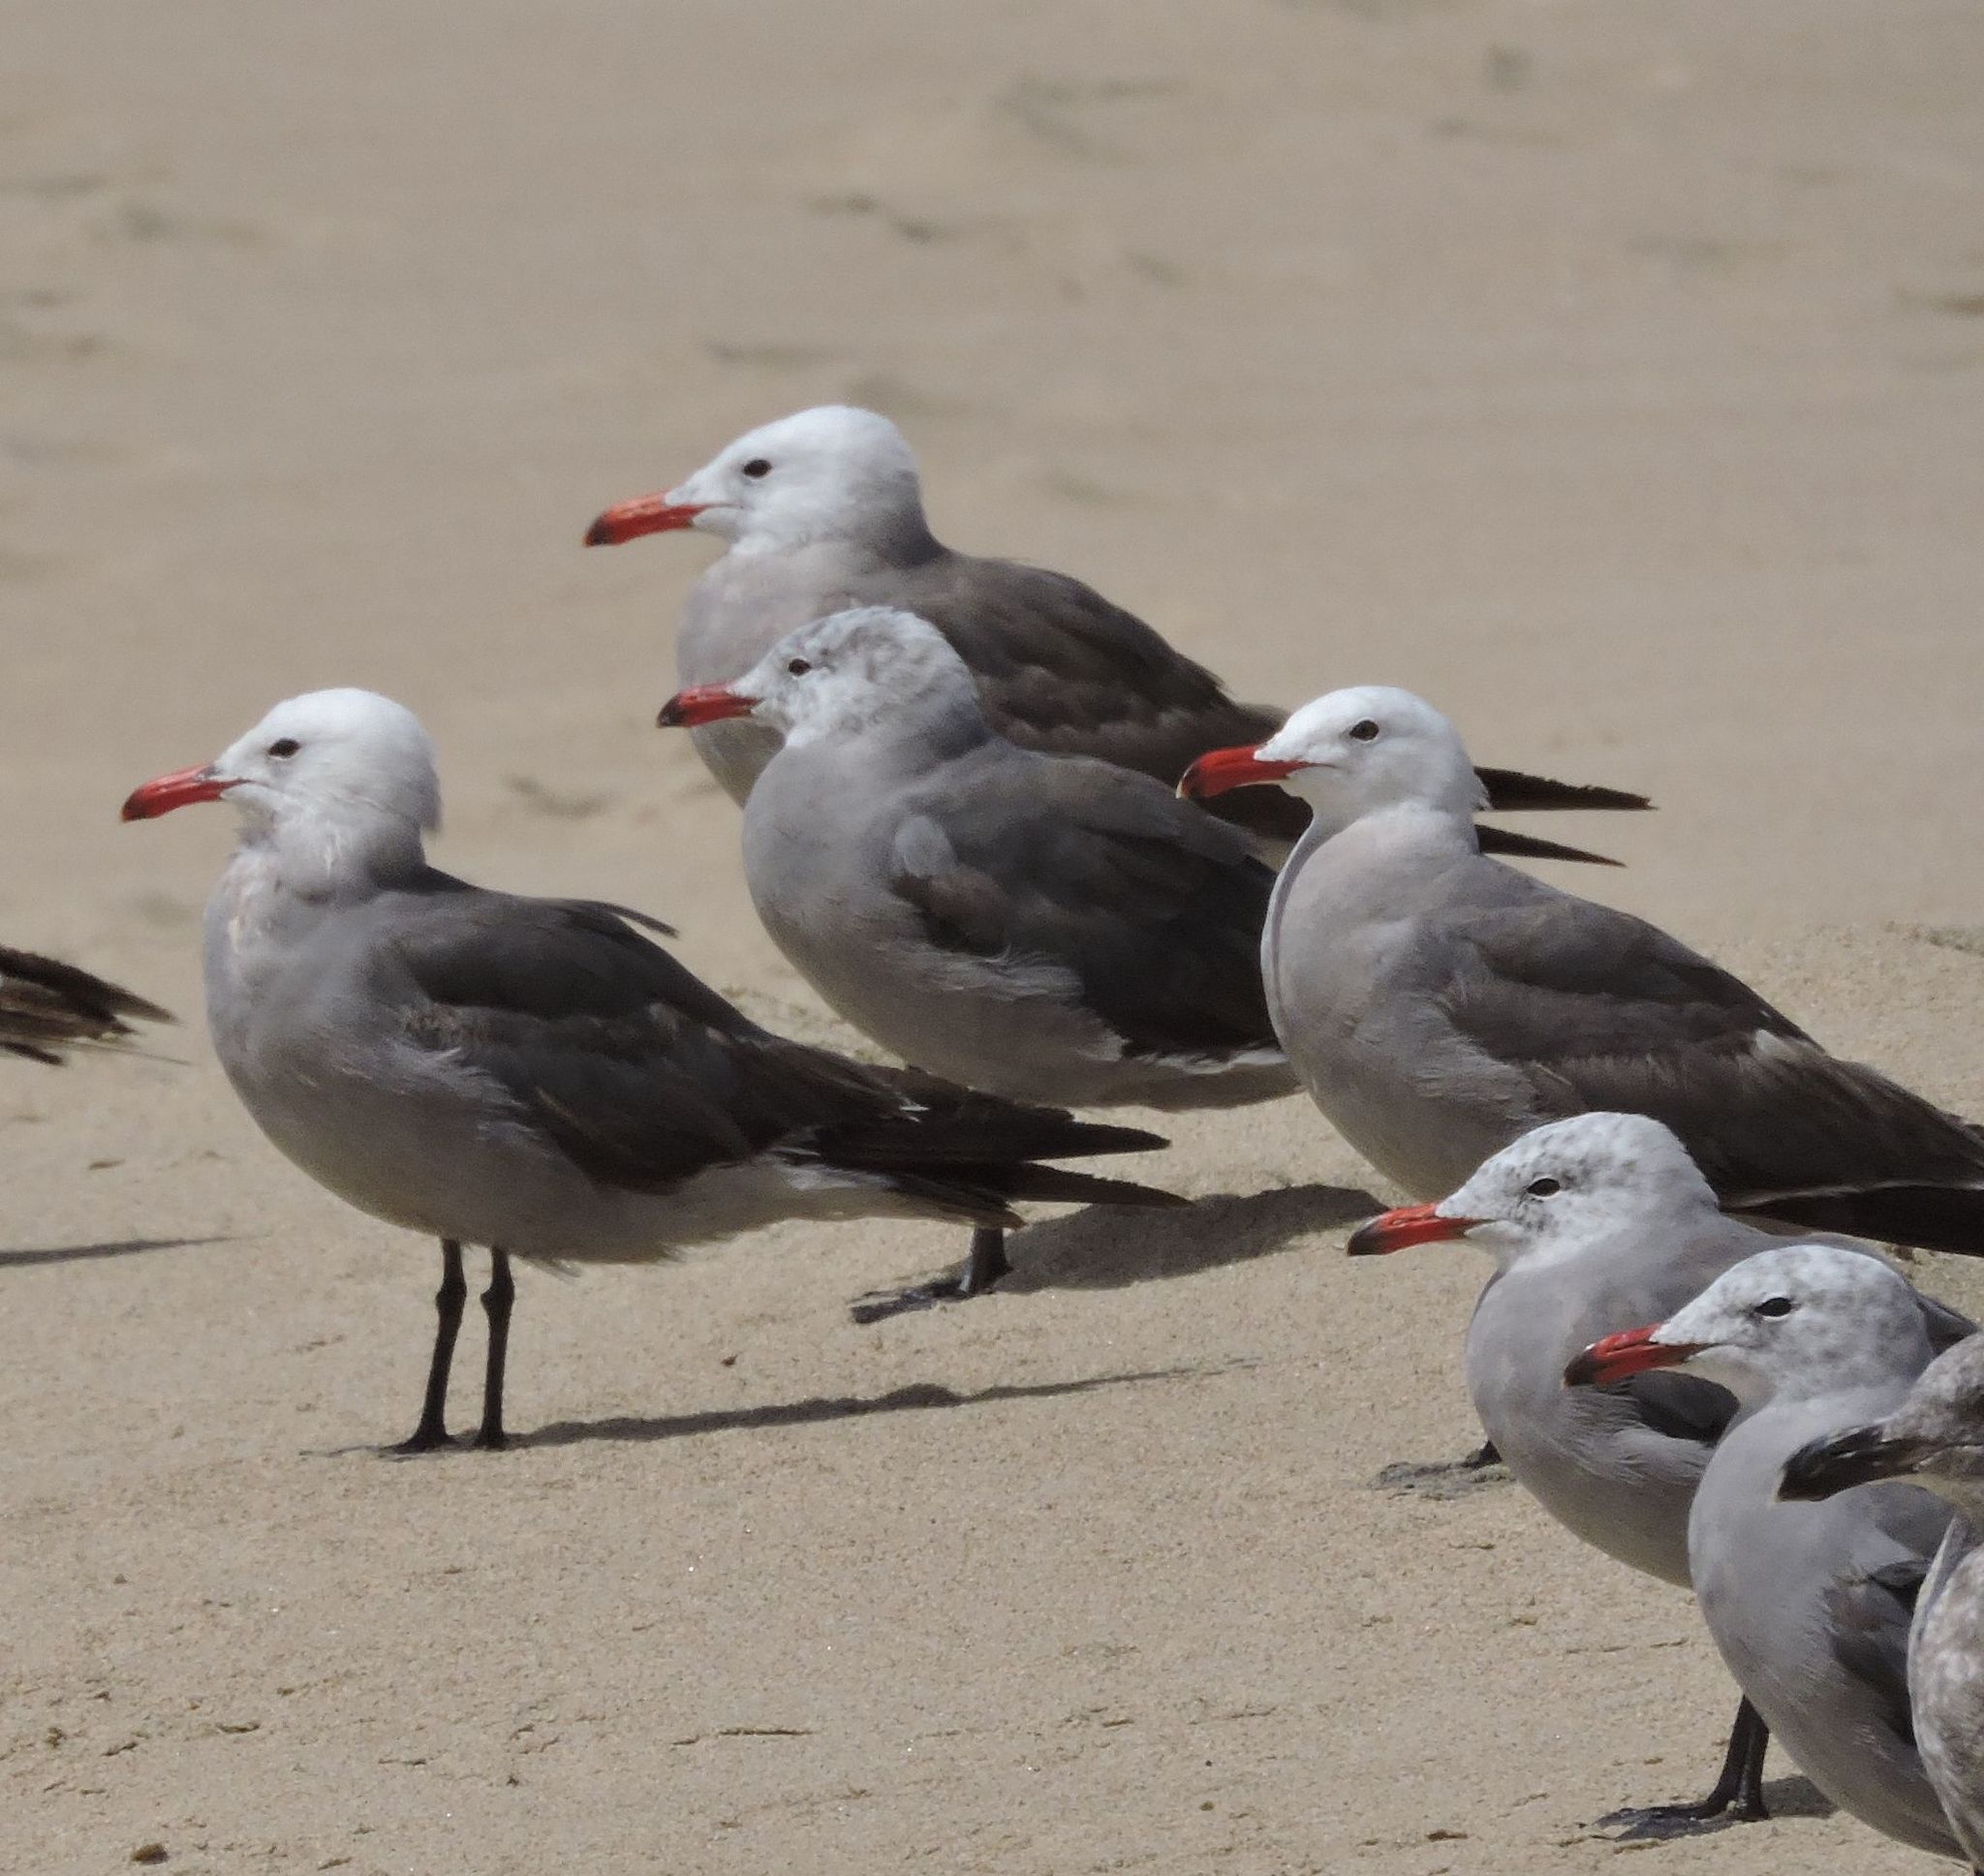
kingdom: Animalia
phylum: Chordata
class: Aves
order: Charadriiformes
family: Laridae
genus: Larus
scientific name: Larus heermanni
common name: Heermann's gull
